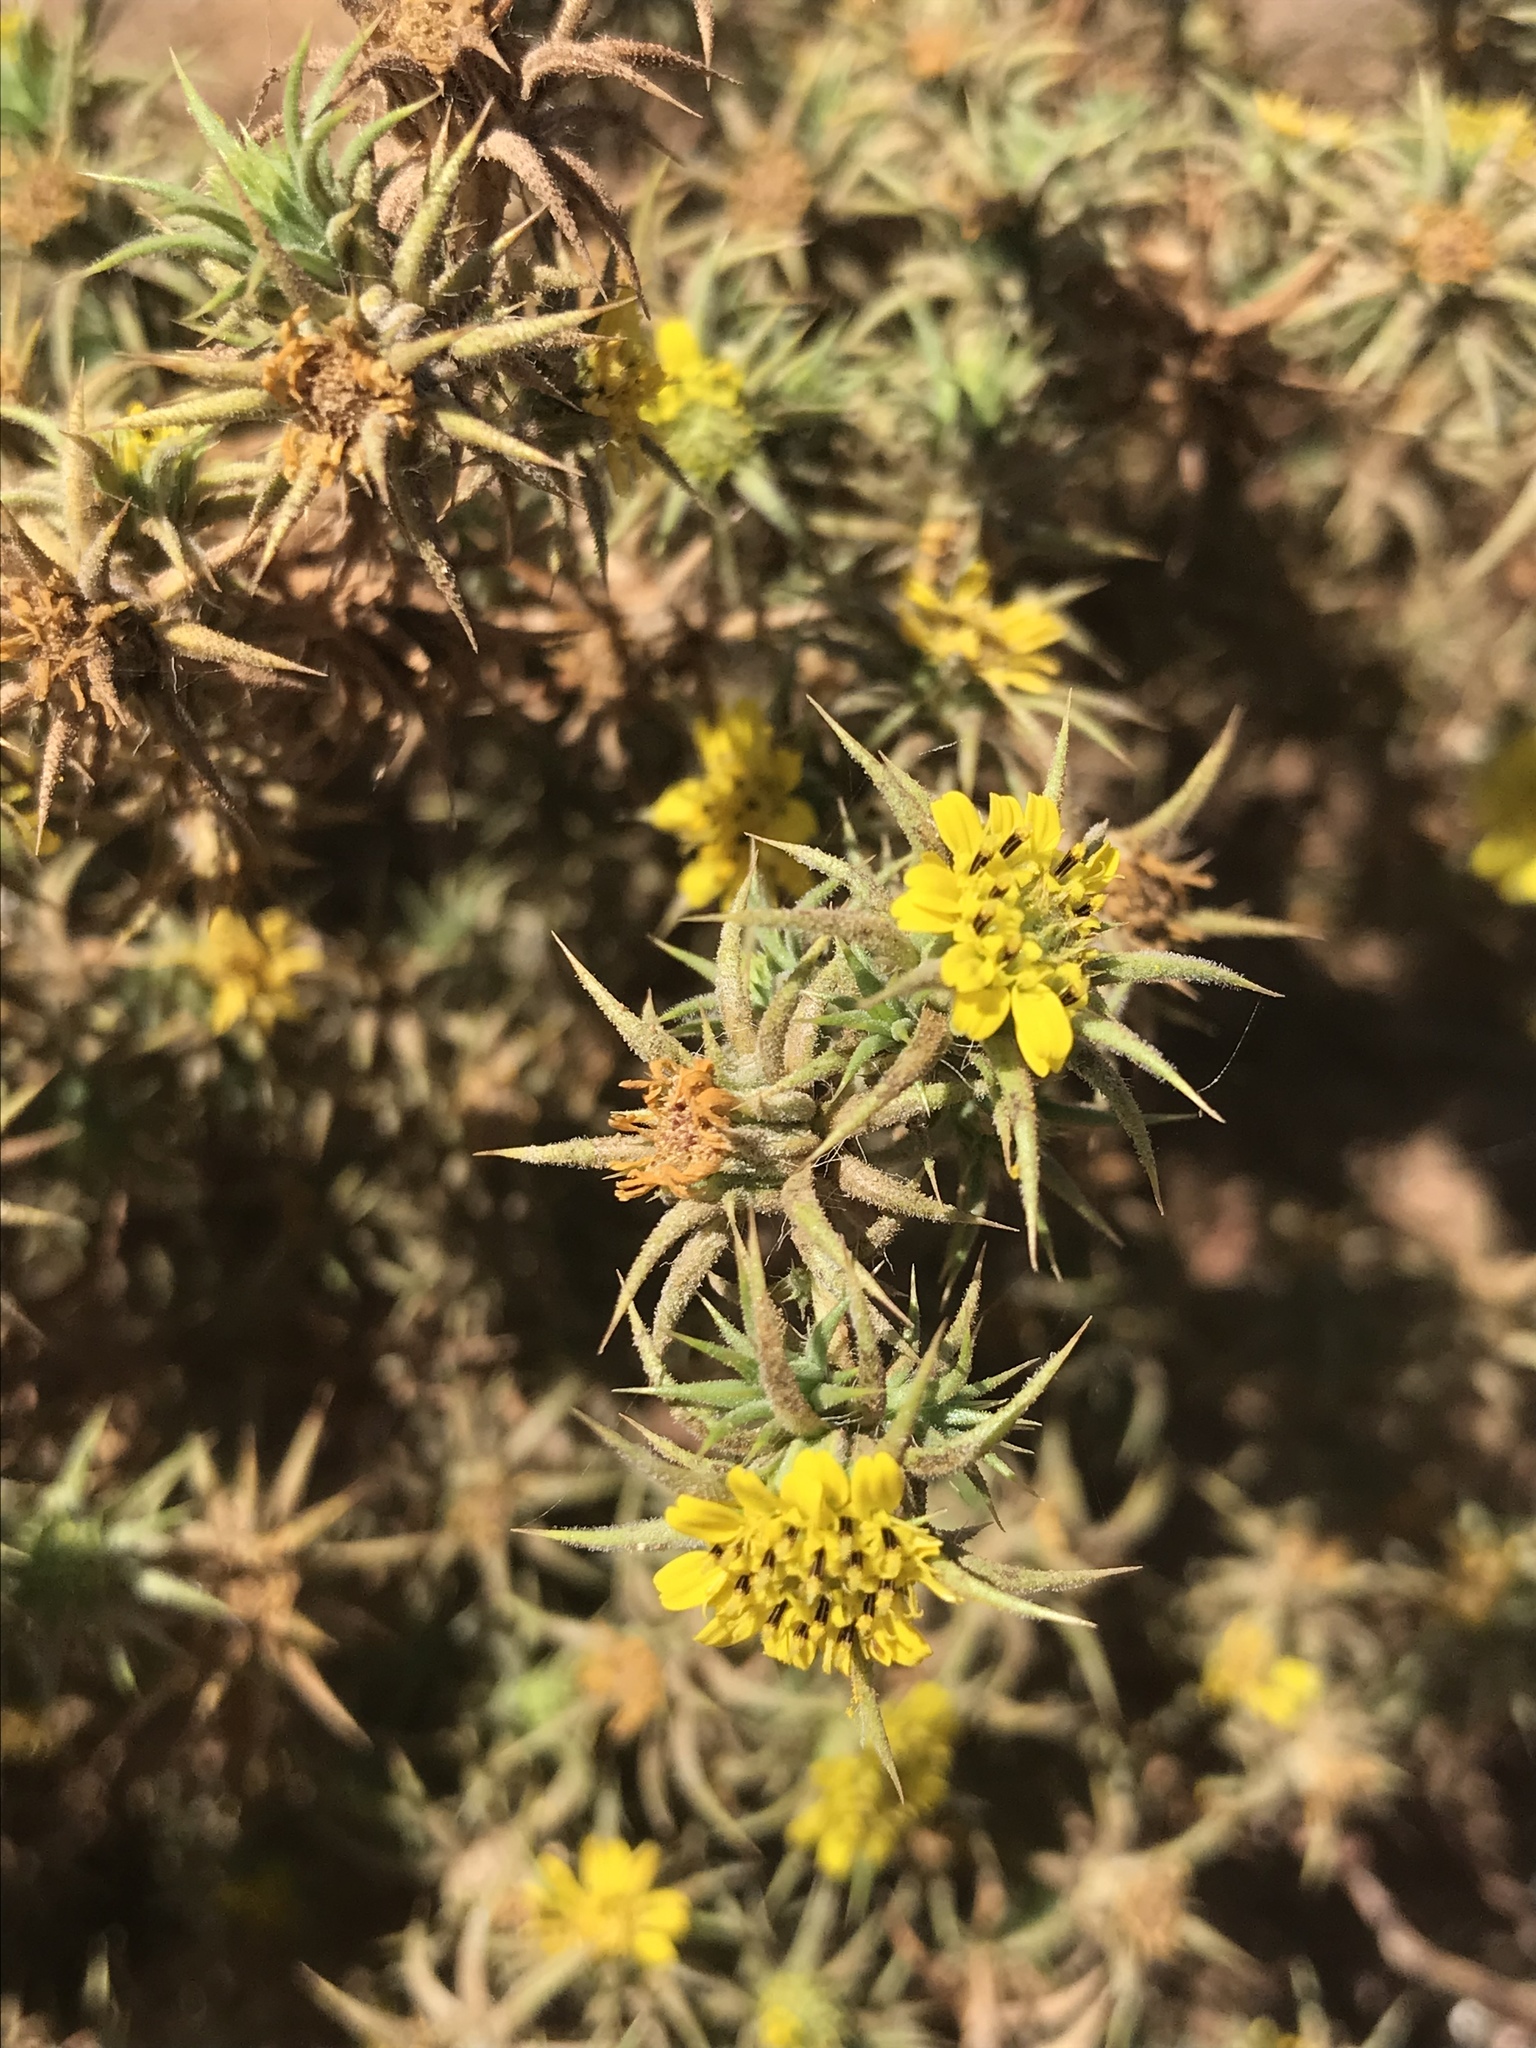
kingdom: Plantae
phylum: Tracheophyta
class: Magnoliopsida
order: Asterales
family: Asteraceae
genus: Centromadia
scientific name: Centromadia perennis
